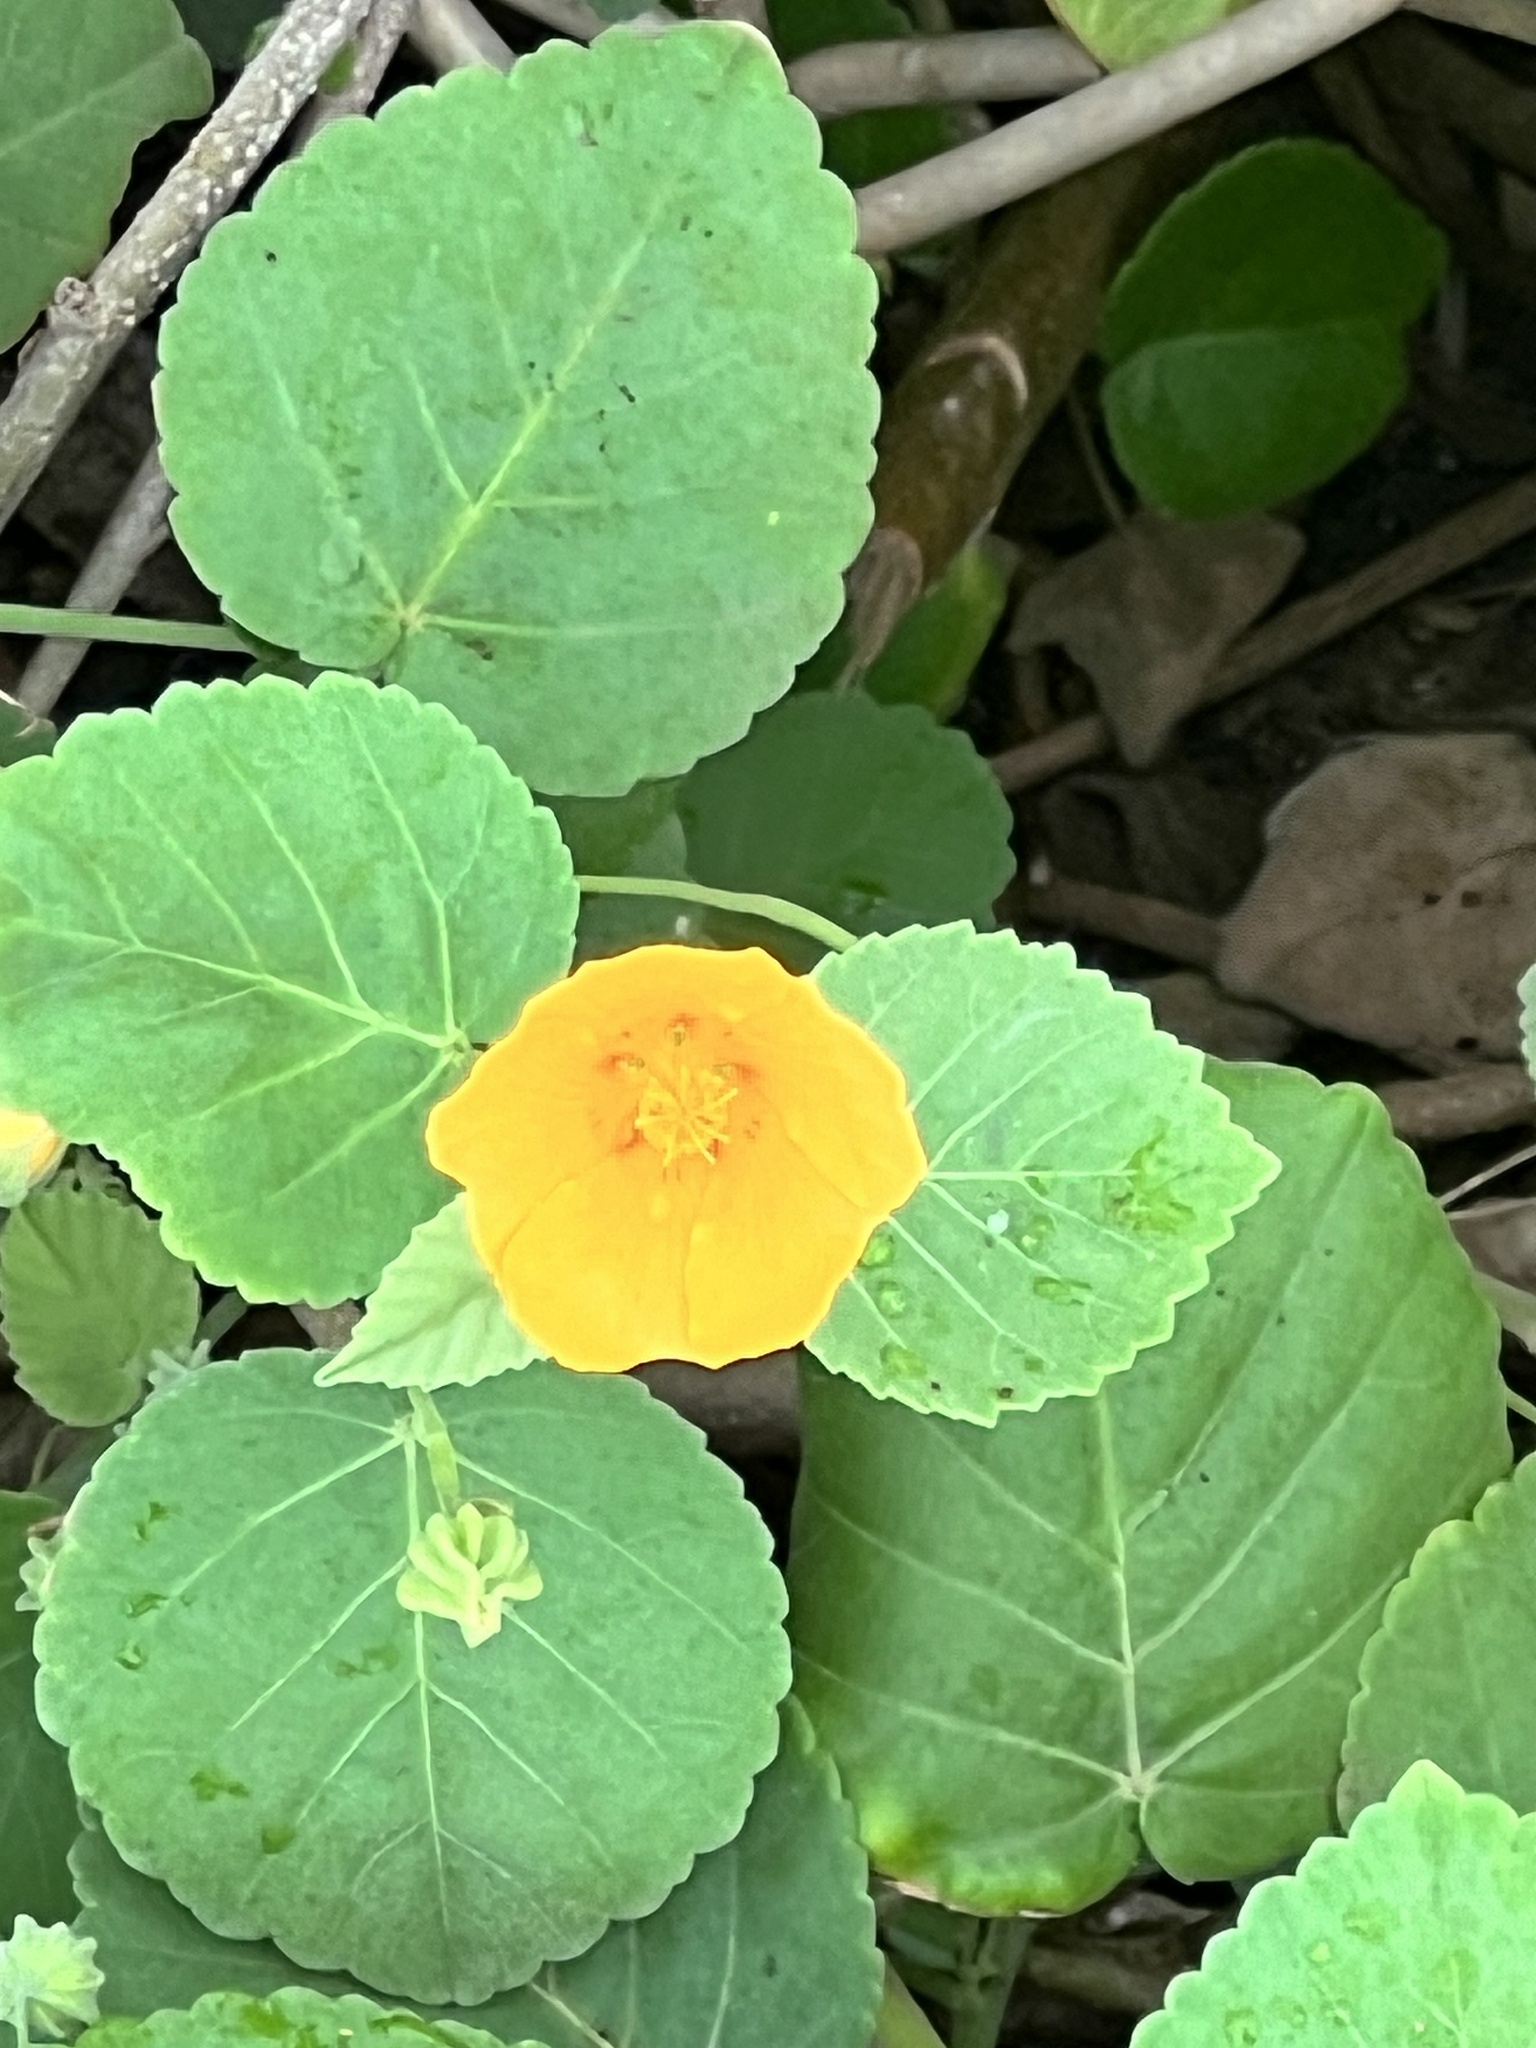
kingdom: Plantae
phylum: Tracheophyta
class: Magnoliopsida
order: Malvales
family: Malvaceae
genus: Sida
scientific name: Sida fallax
